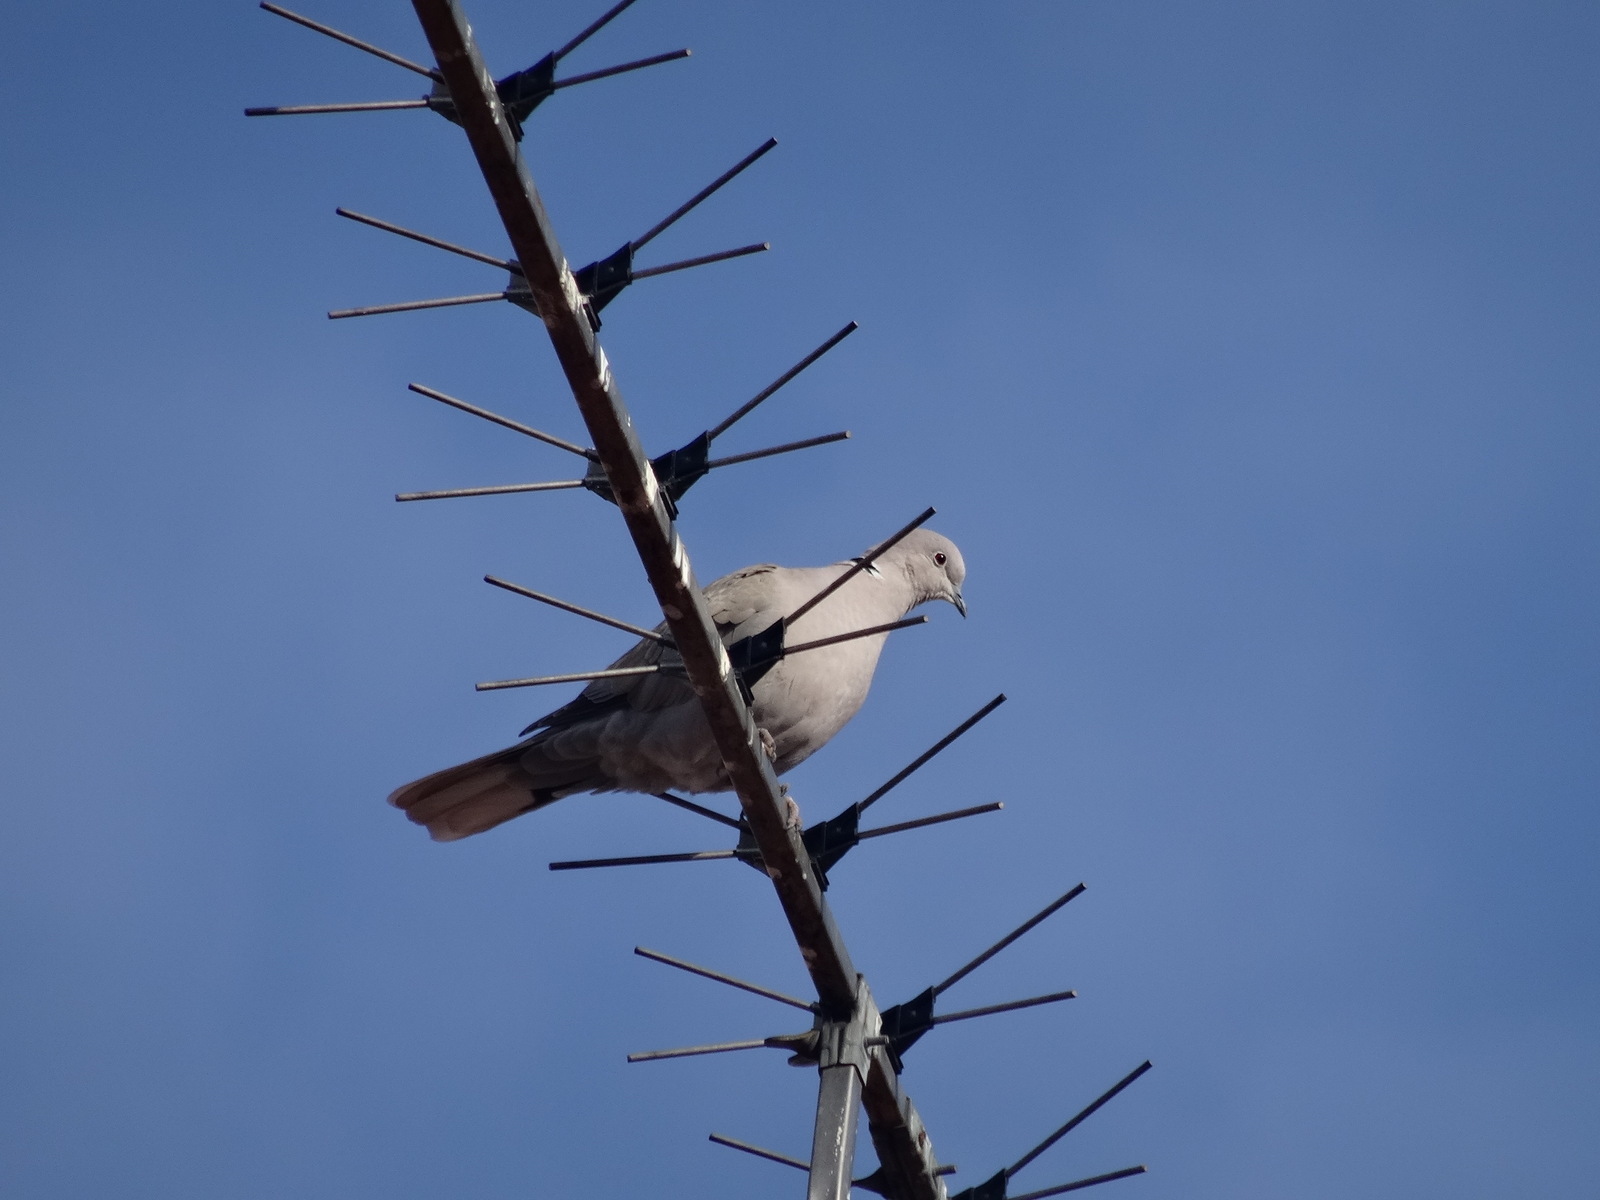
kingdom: Animalia
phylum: Chordata
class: Aves
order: Columbiformes
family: Columbidae
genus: Streptopelia
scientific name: Streptopelia decaocto
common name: Eurasian collared dove
